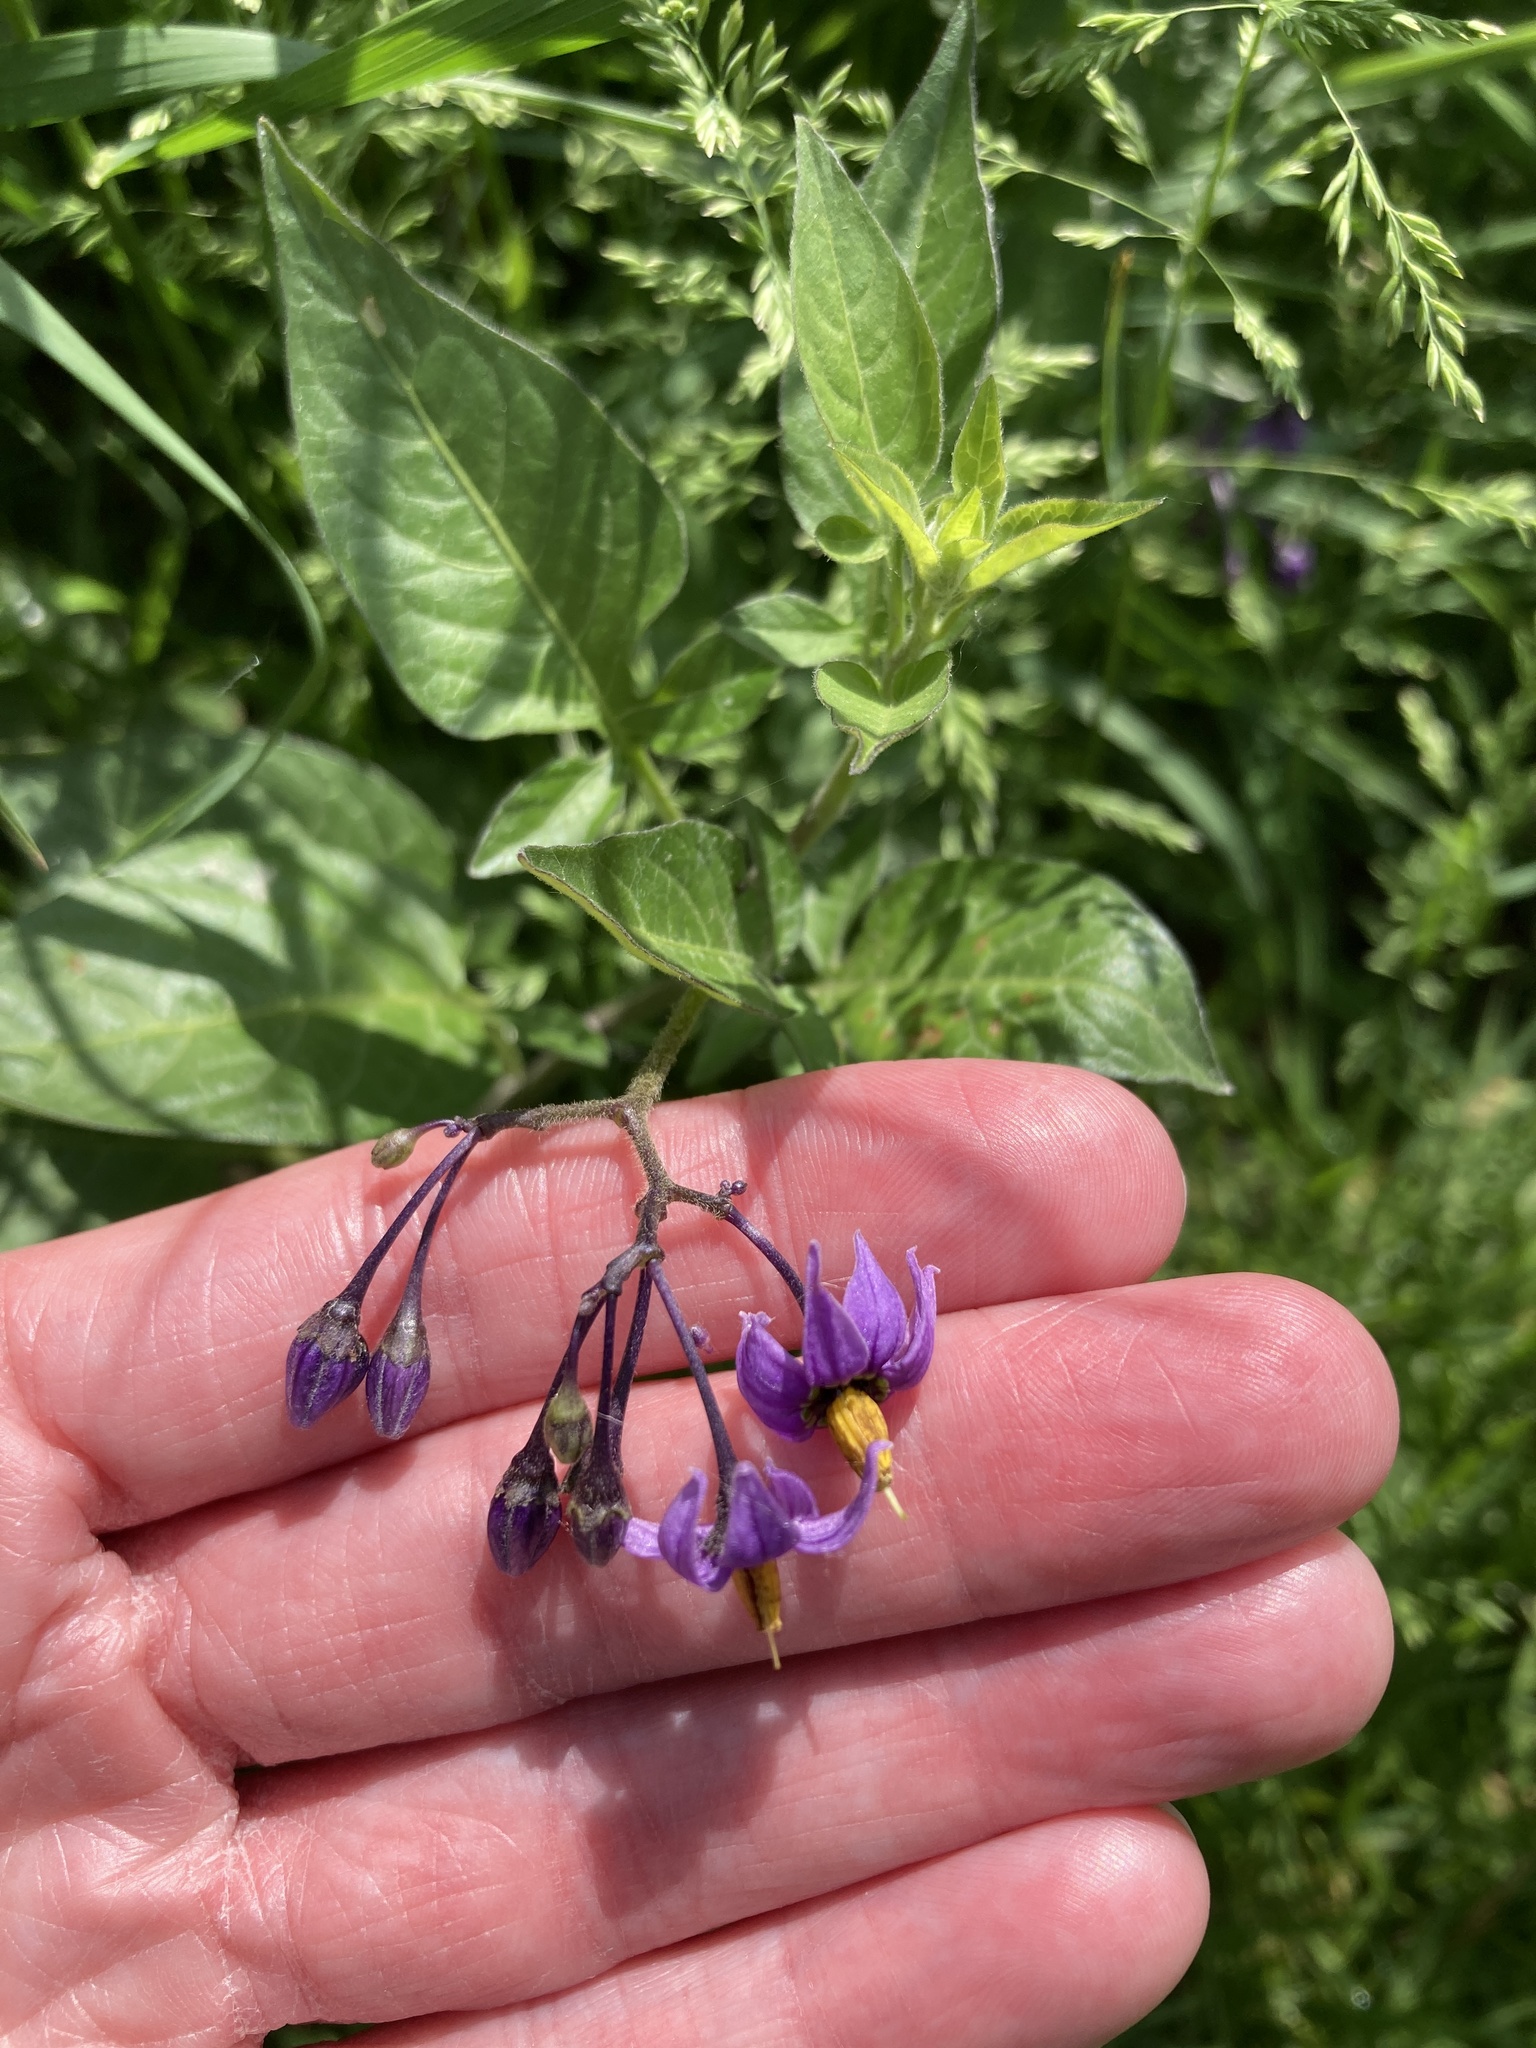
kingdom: Plantae
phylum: Tracheophyta
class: Magnoliopsida
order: Solanales
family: Solanaceae
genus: Solanum
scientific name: Solanum dulcamara
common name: Climbing nightshade
